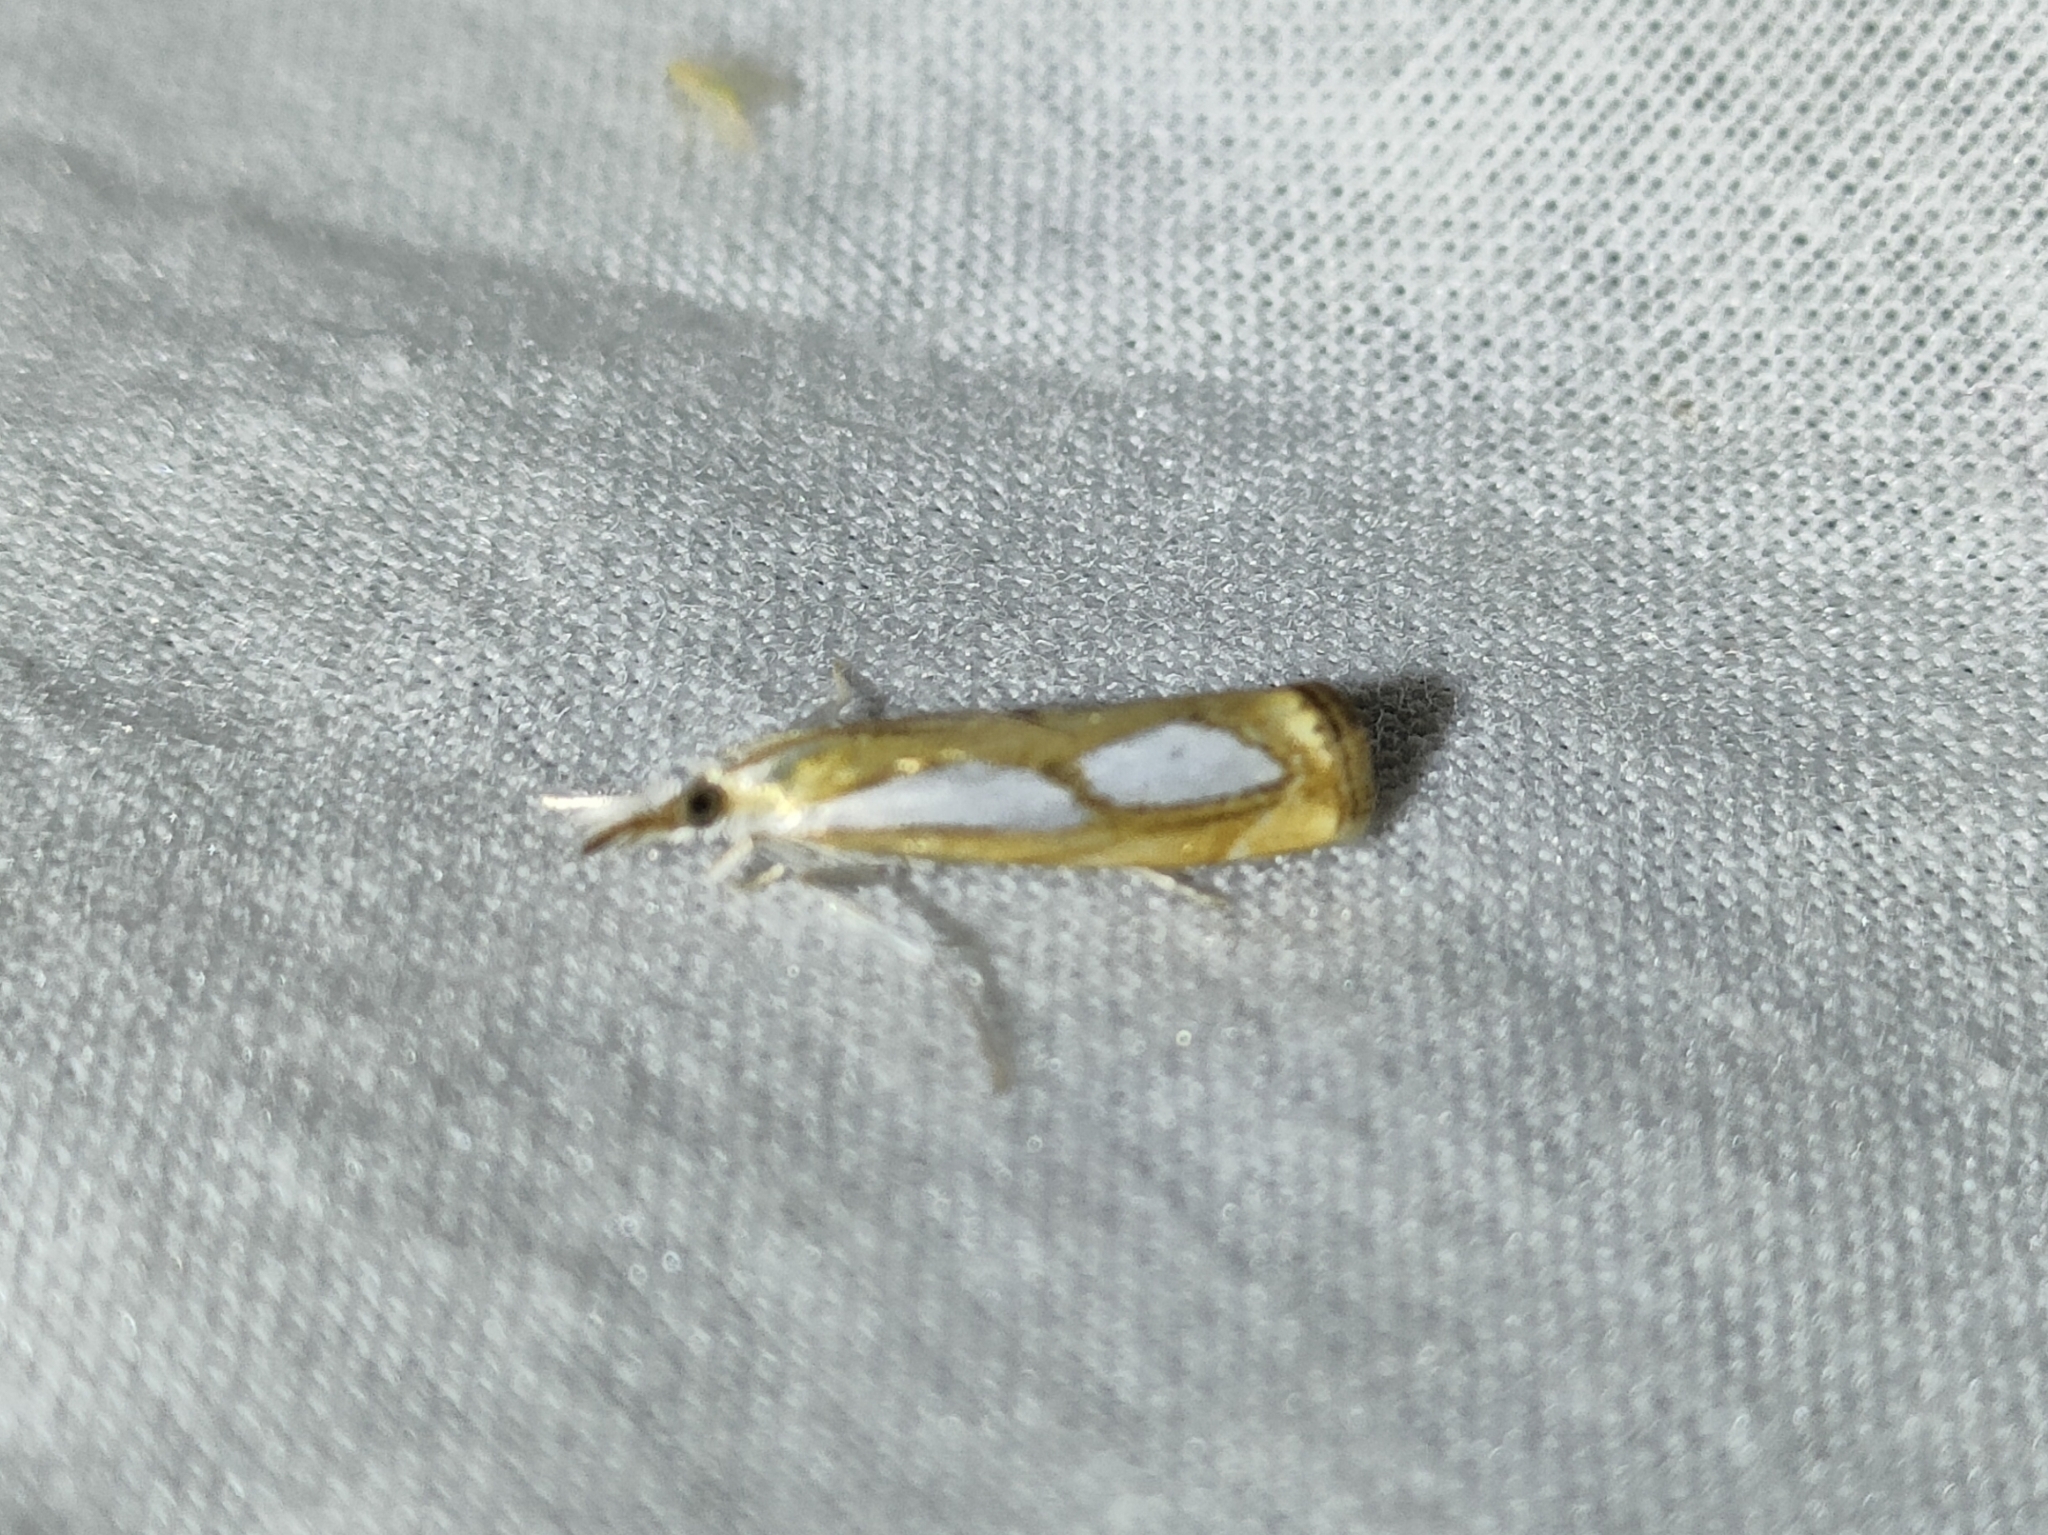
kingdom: Animalia
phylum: Arthropoda
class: Insecta
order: Lepidoptera
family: Crambidae
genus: Catoptria
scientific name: Catoptria pinella
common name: Pearl grass-veneer
